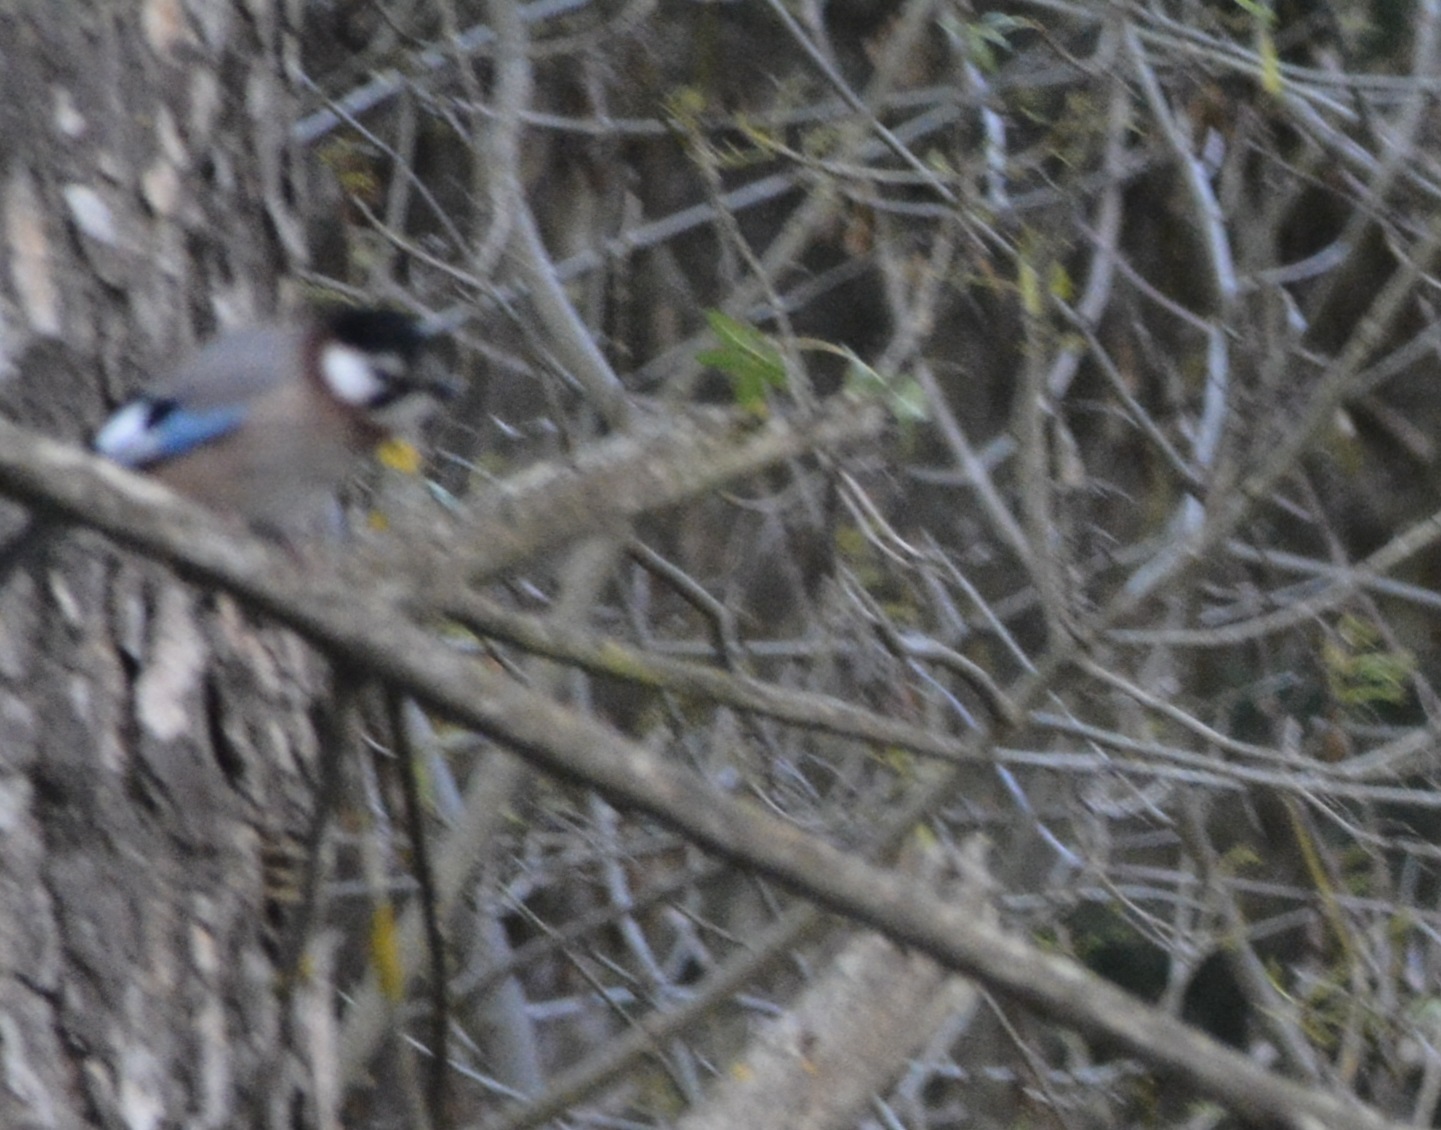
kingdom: Animalia
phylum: Chordata
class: Aves
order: Passeriformes
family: Corvidae
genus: Garrulus
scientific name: Garrulus glandarius
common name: Eurasian jay
